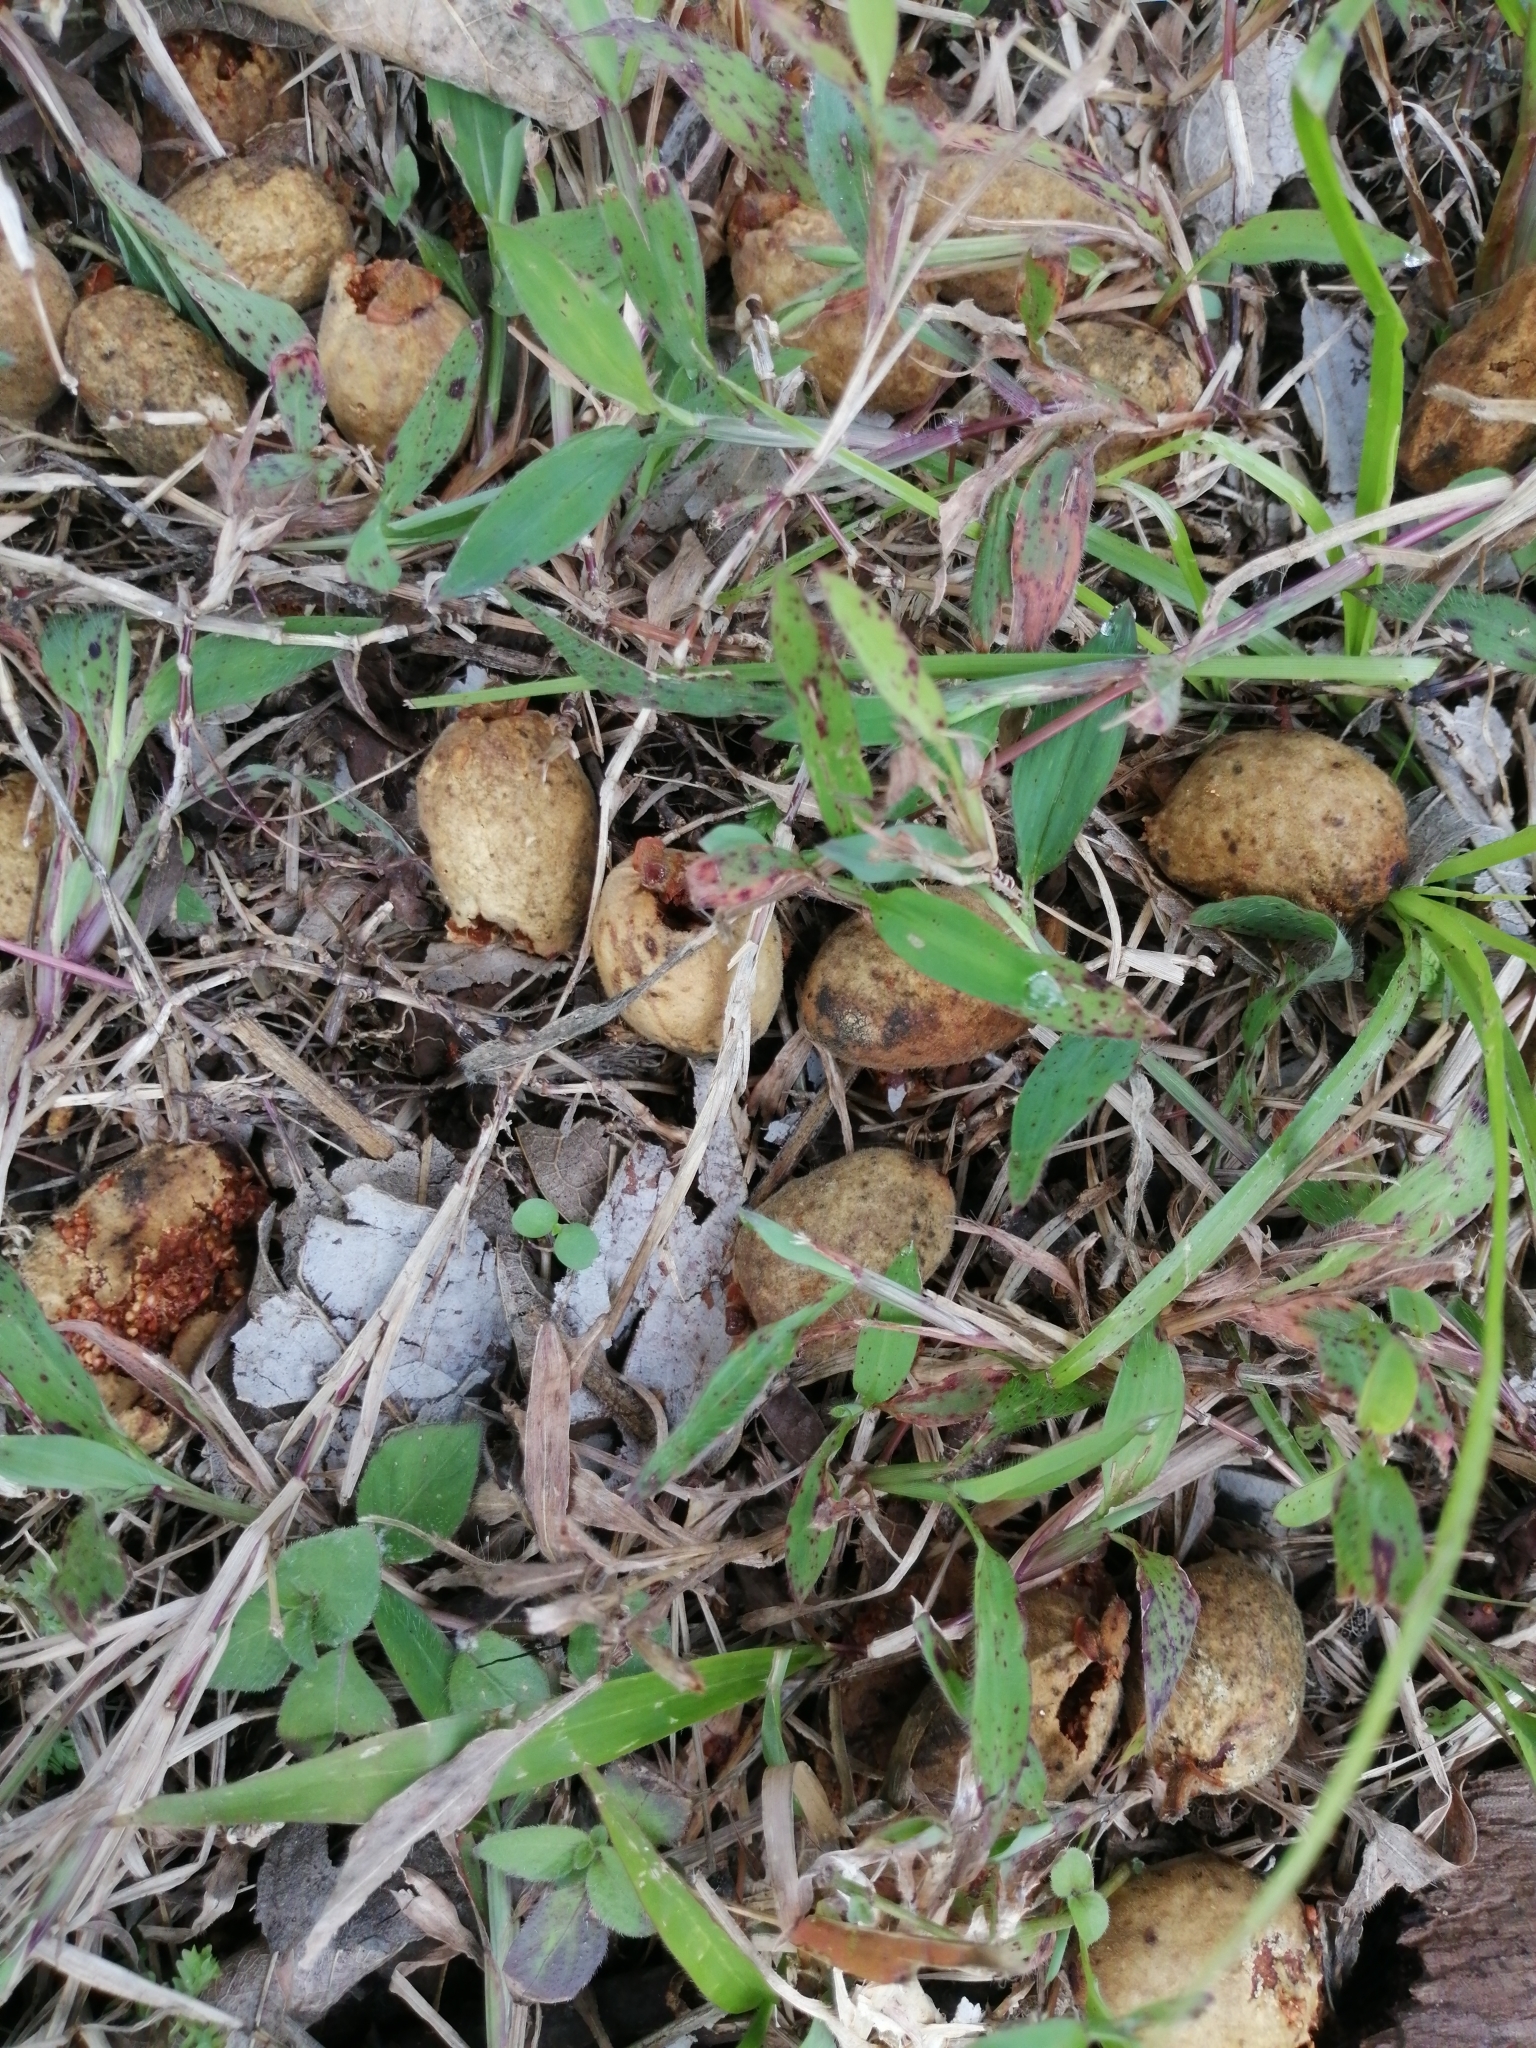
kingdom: Plantae
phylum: Tracheophyta
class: Magnoliopsida
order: Sapindales
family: Anacardiaceae
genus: Spondias
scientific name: Spondias mombin
